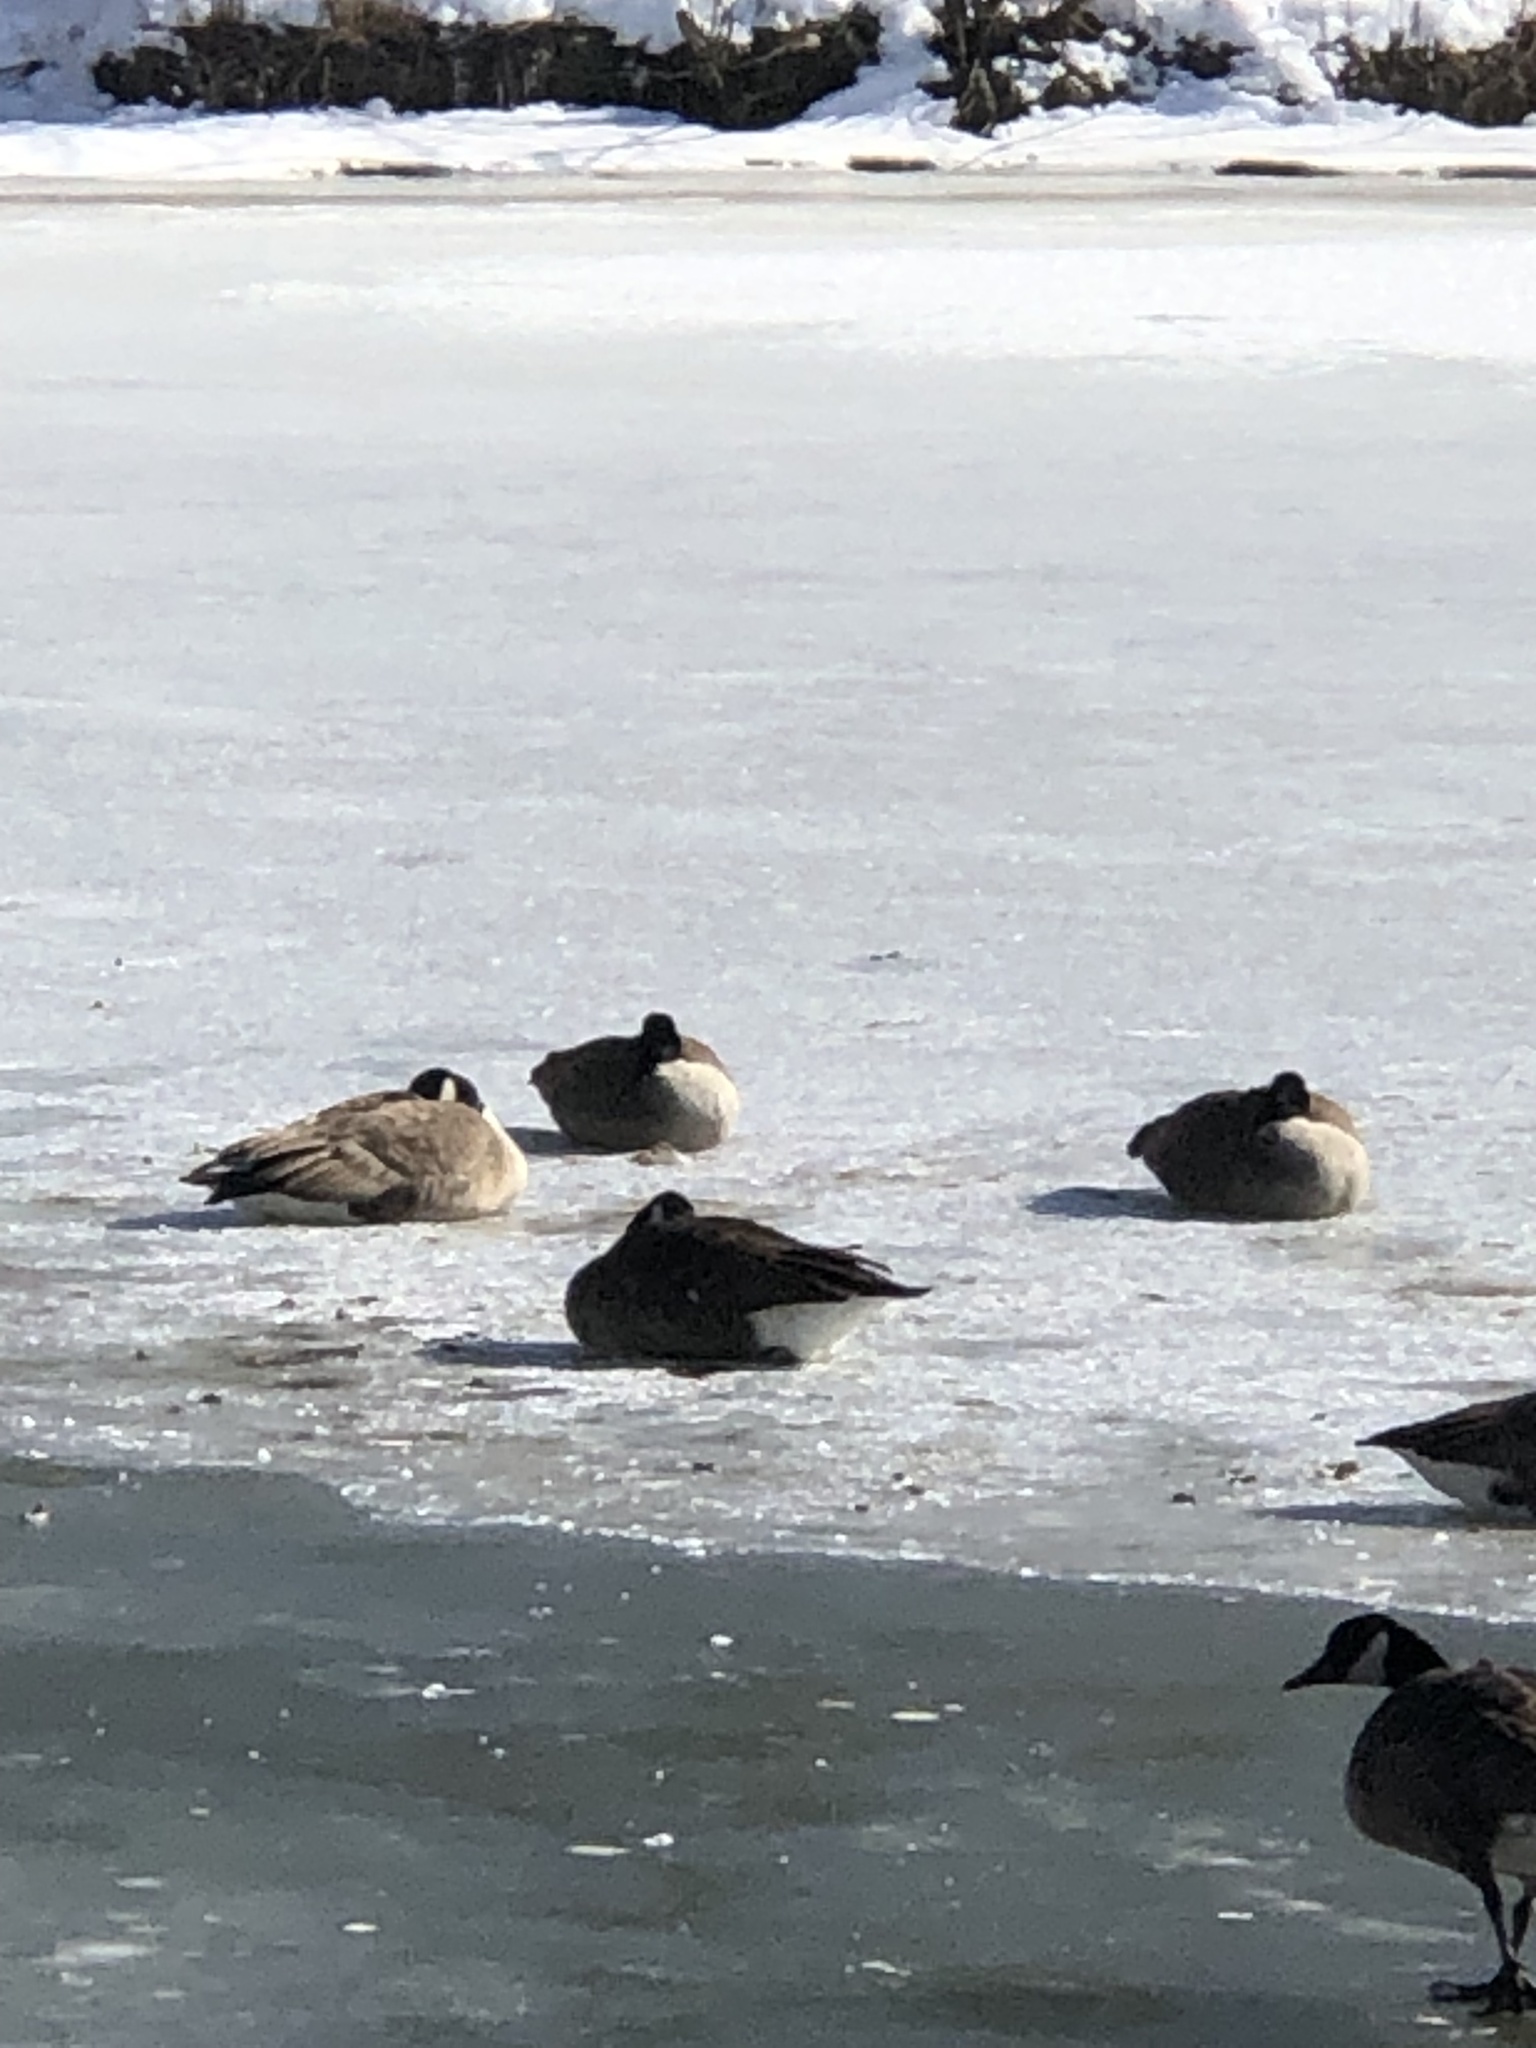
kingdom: Animalia
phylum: Chordata
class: Aves
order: Anseriformes
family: Anatidae
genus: Branta
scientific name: Branta canadensis
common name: Canada goose
